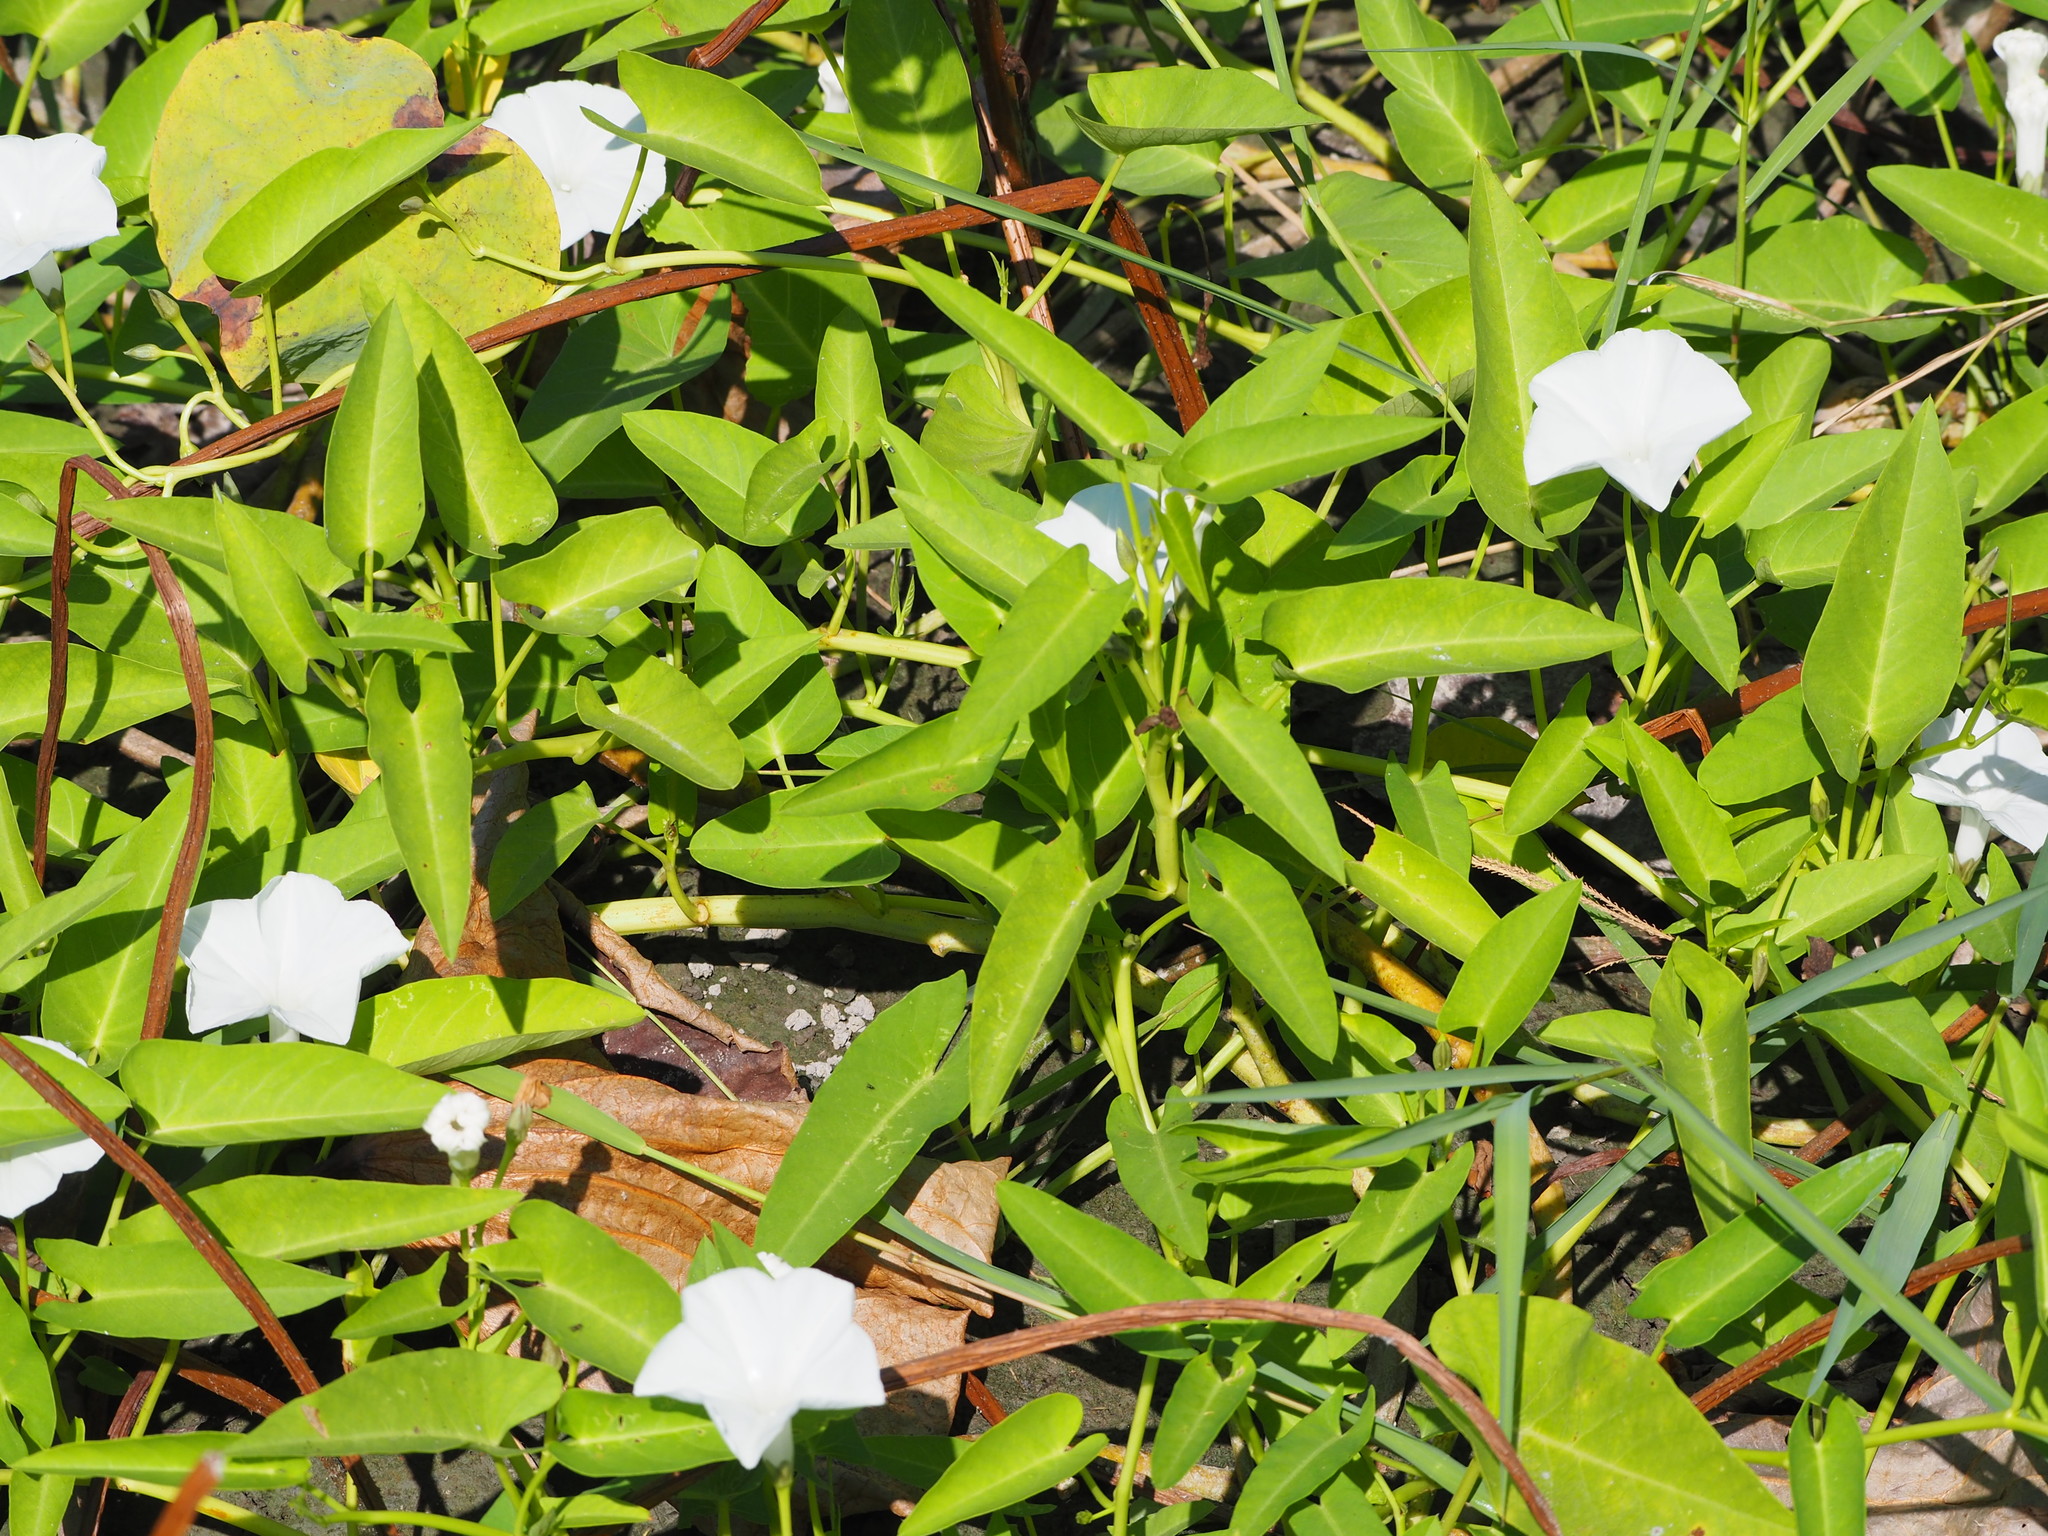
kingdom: Plantae
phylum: Tracheophyta
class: Magnoliopsida
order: Solanales
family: Convolvulaceae
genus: Ipomoea
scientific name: Ipomoea aquatica
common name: Swamp morning-glory
